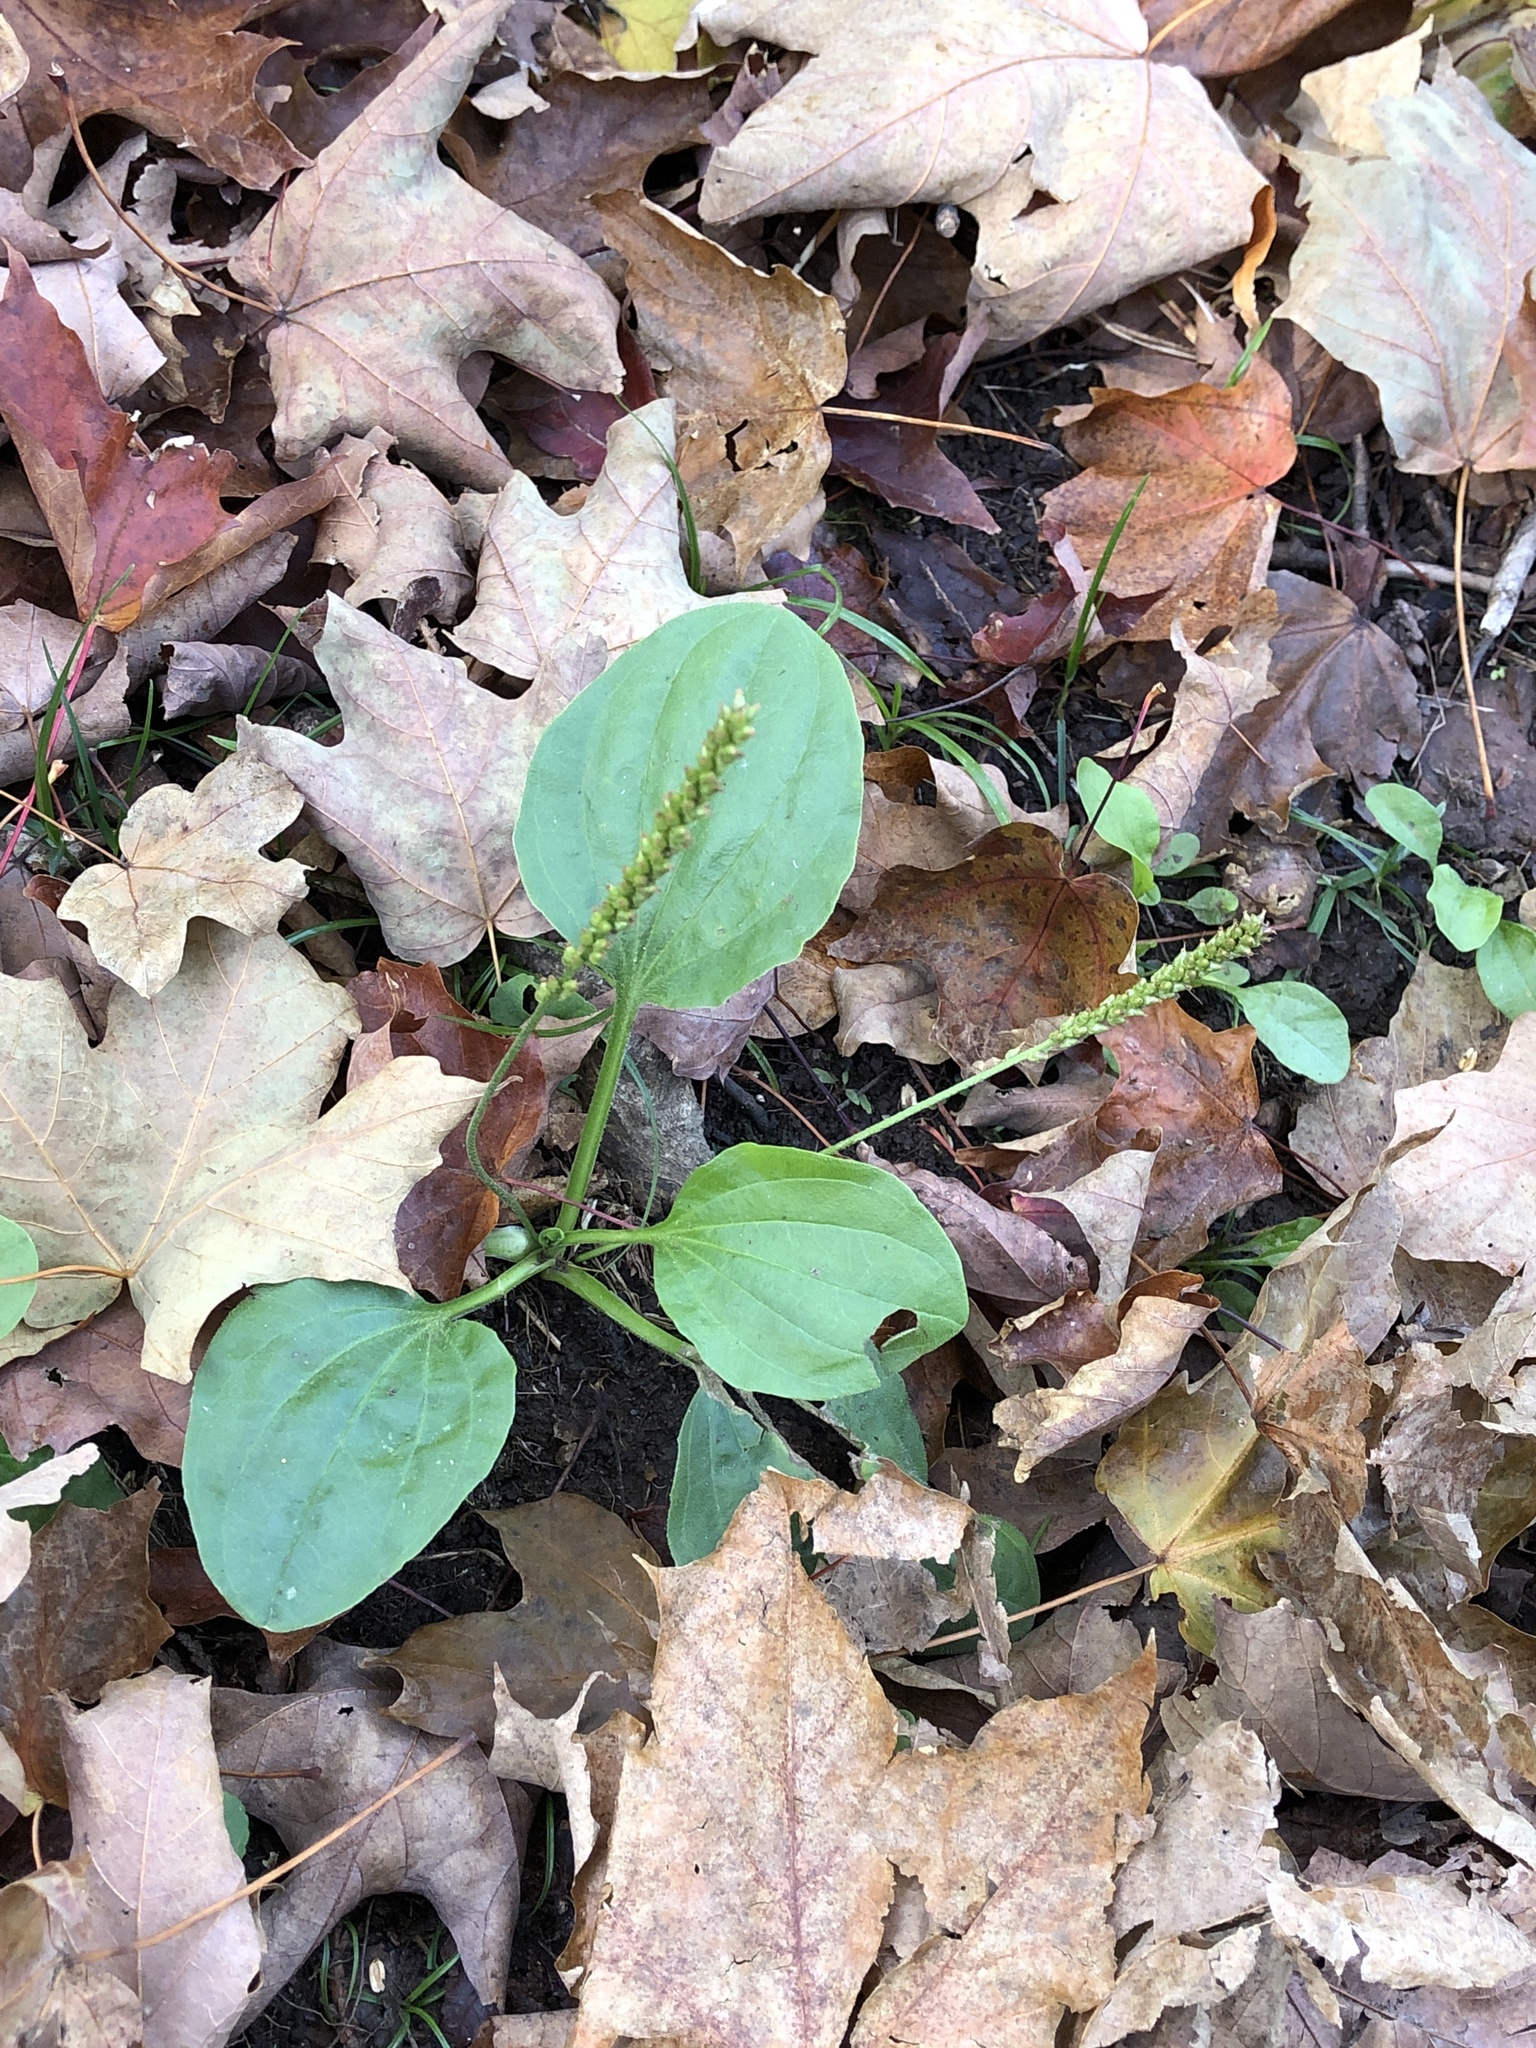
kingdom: Plantae
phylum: Tracheophyta
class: Magnoliopsida
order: Lamiales
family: Plantaginaceae
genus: Plantago
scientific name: Plantago major
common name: Common plantain
